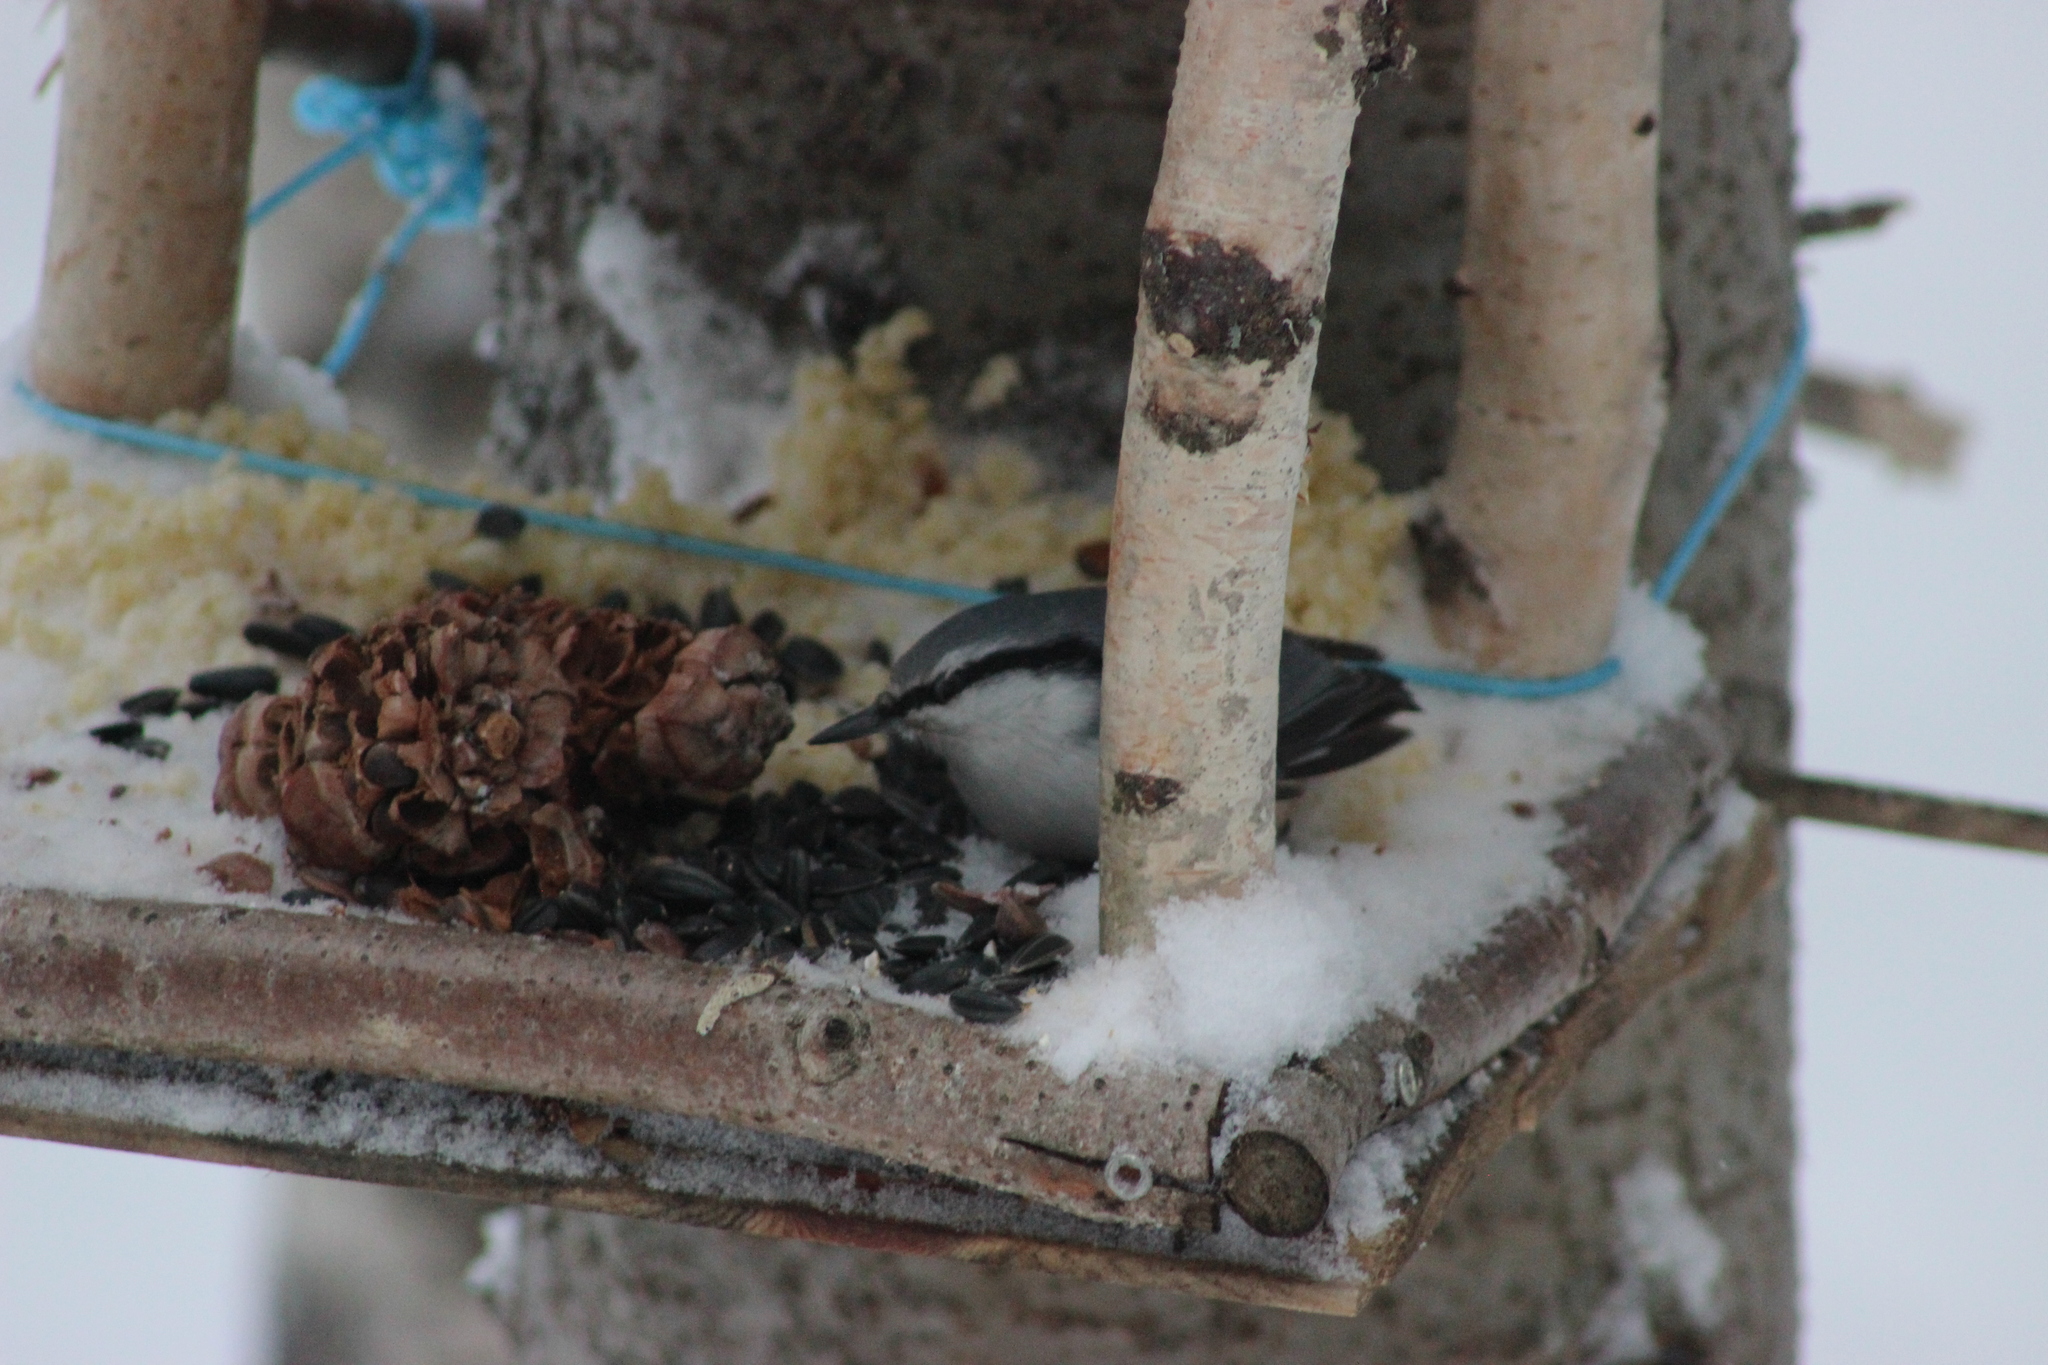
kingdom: Animalia
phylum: Chordata
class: Aves
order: Passeriformes
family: Sittidae
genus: Sitta
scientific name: Sitta europaea
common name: Eurasian nuthatch
